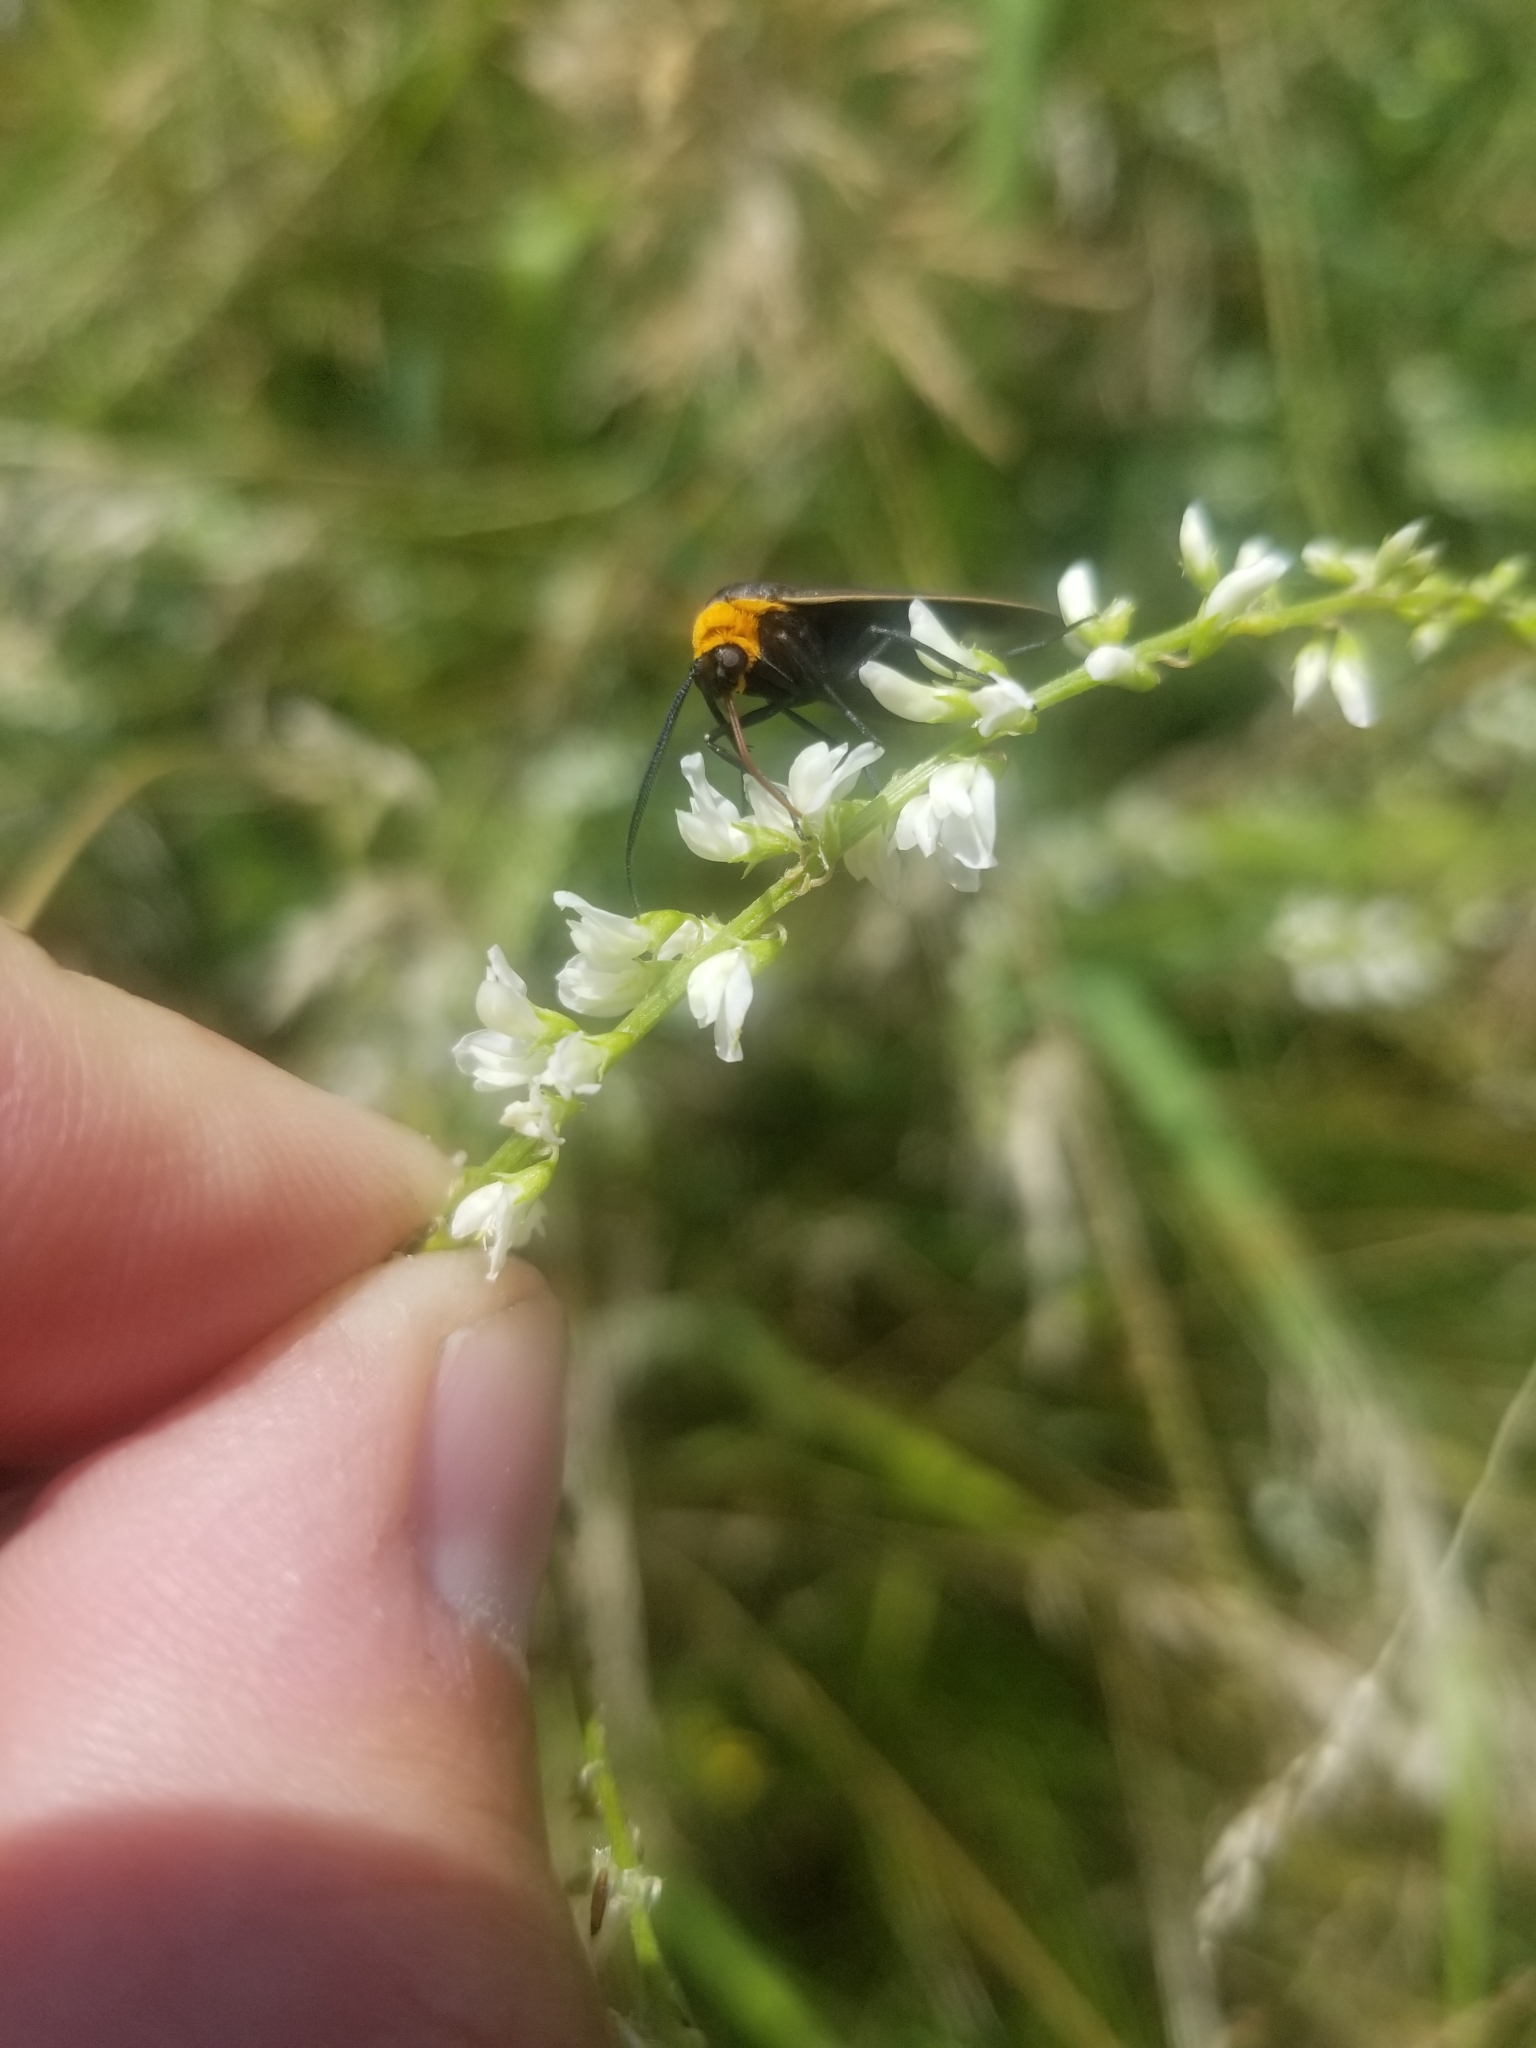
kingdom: Animalia
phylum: Arthropoda
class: Insecta
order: Lepidoptera
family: Erebidae
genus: Cisseps
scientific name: Cisseps fulvicollis
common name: Yellow-collared scape moth
